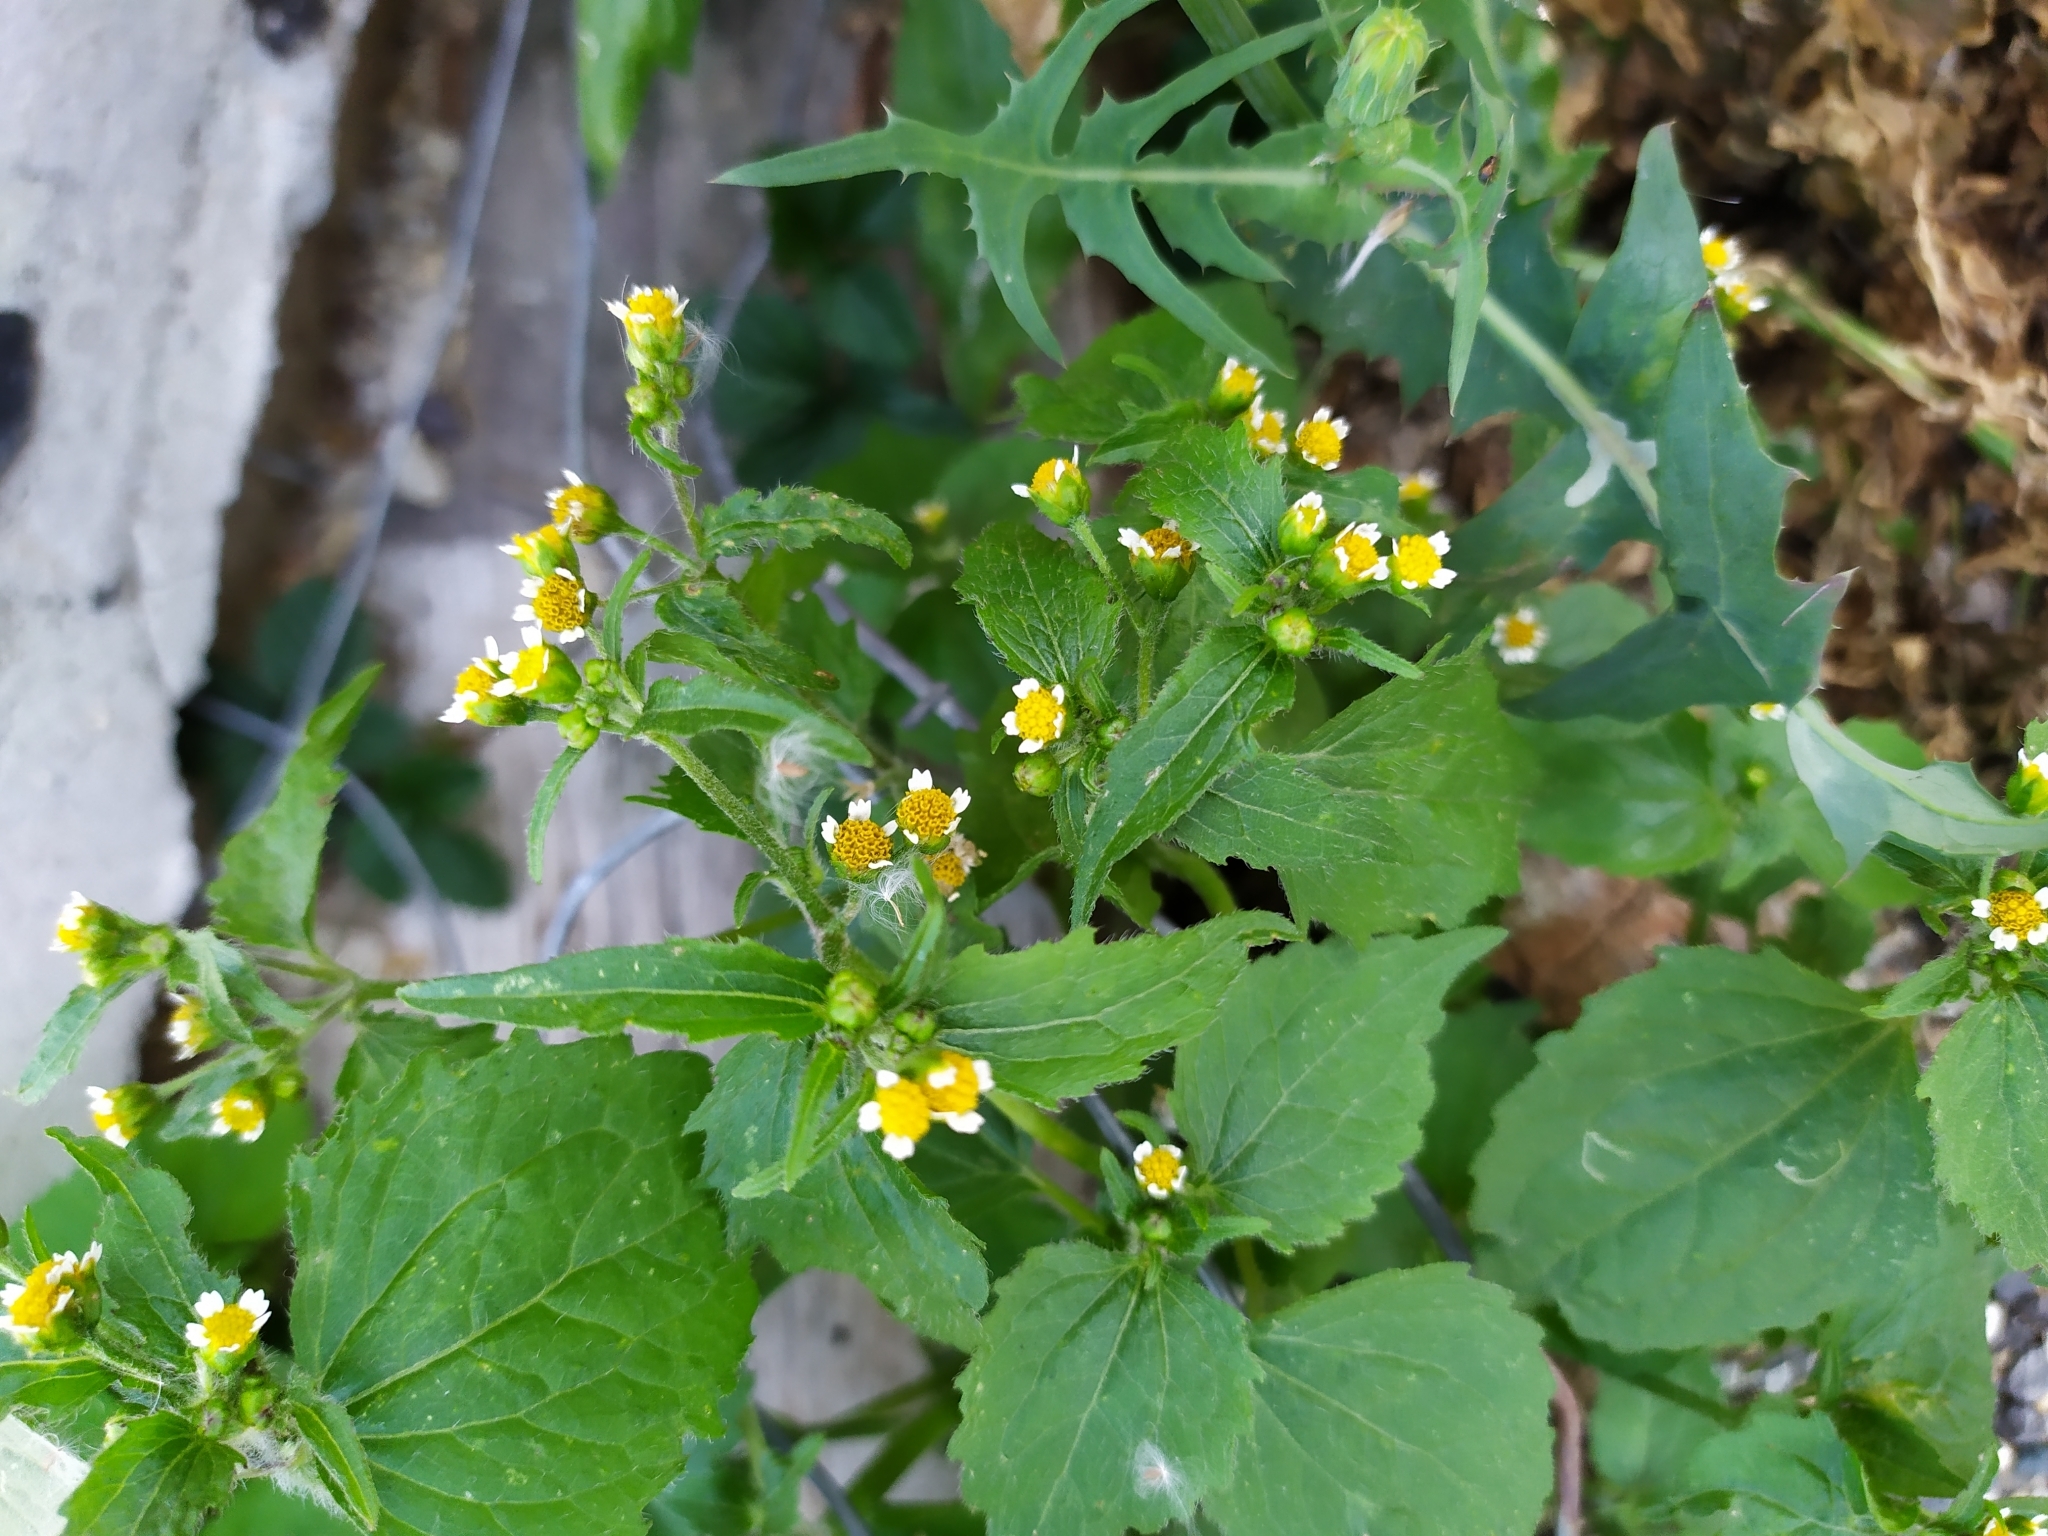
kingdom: Plantae
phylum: Tracheophyta
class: Magnoliopsida
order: Asterales
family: Asteraceae
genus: Galinsoga
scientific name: Galinsoga quadriradiata
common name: Shaggy soldier
